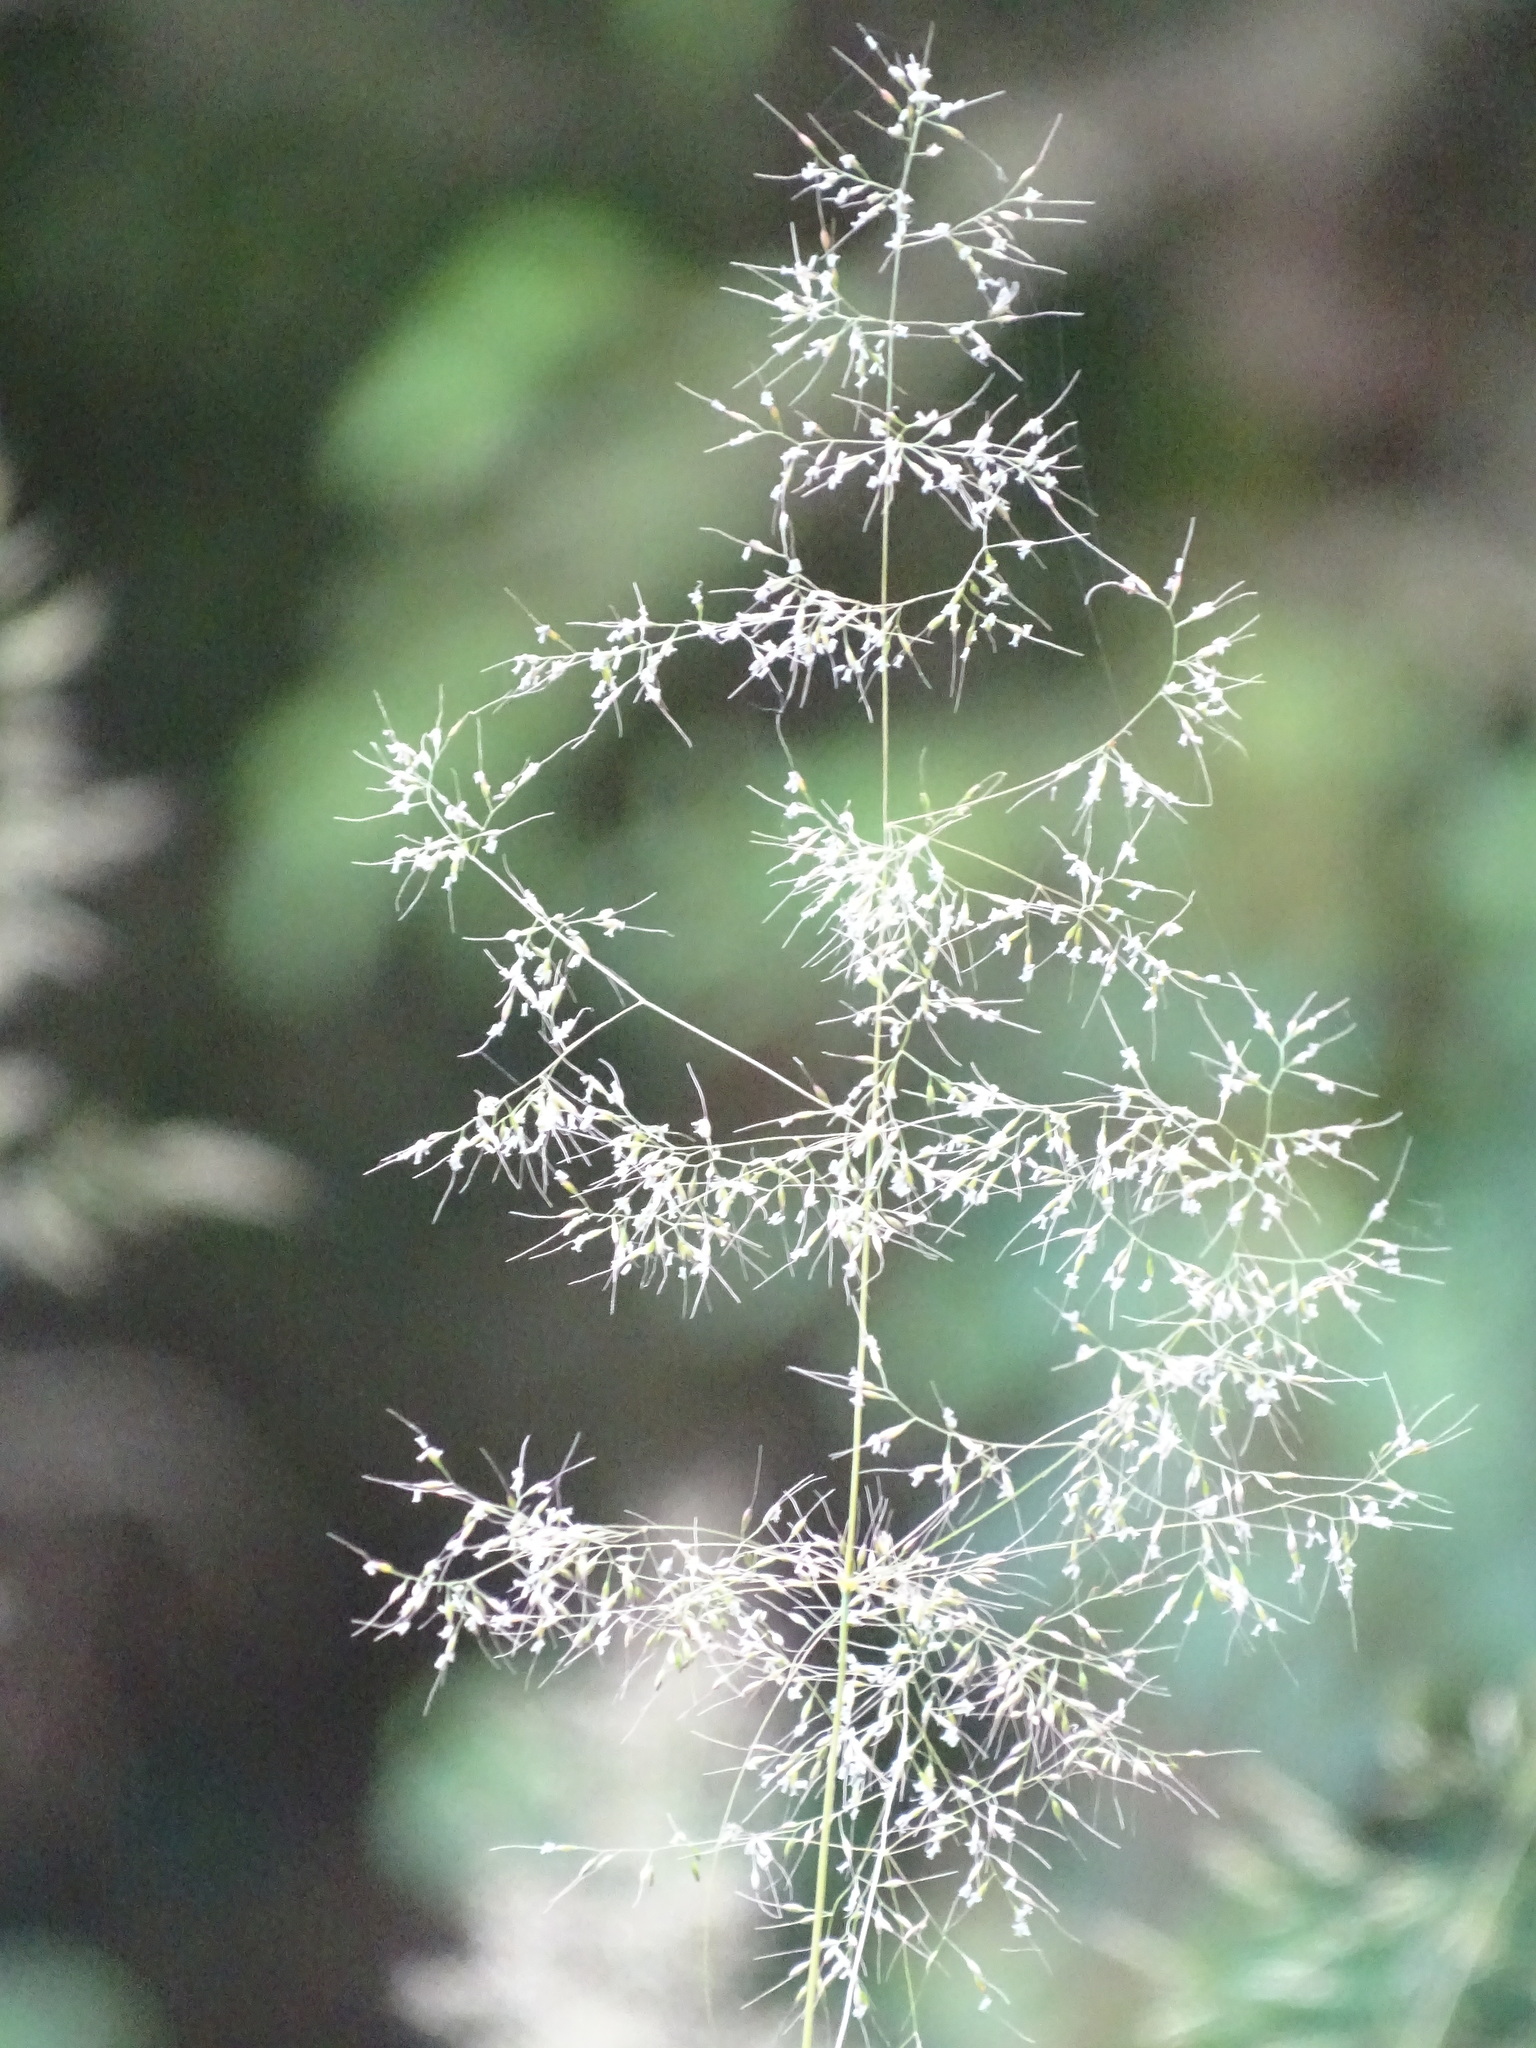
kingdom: Plantae
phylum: Tracheophyta
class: Liliopsida
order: Poales
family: Poaceae
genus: Apera
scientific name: Apera spica-venti
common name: Loose silky-bent
